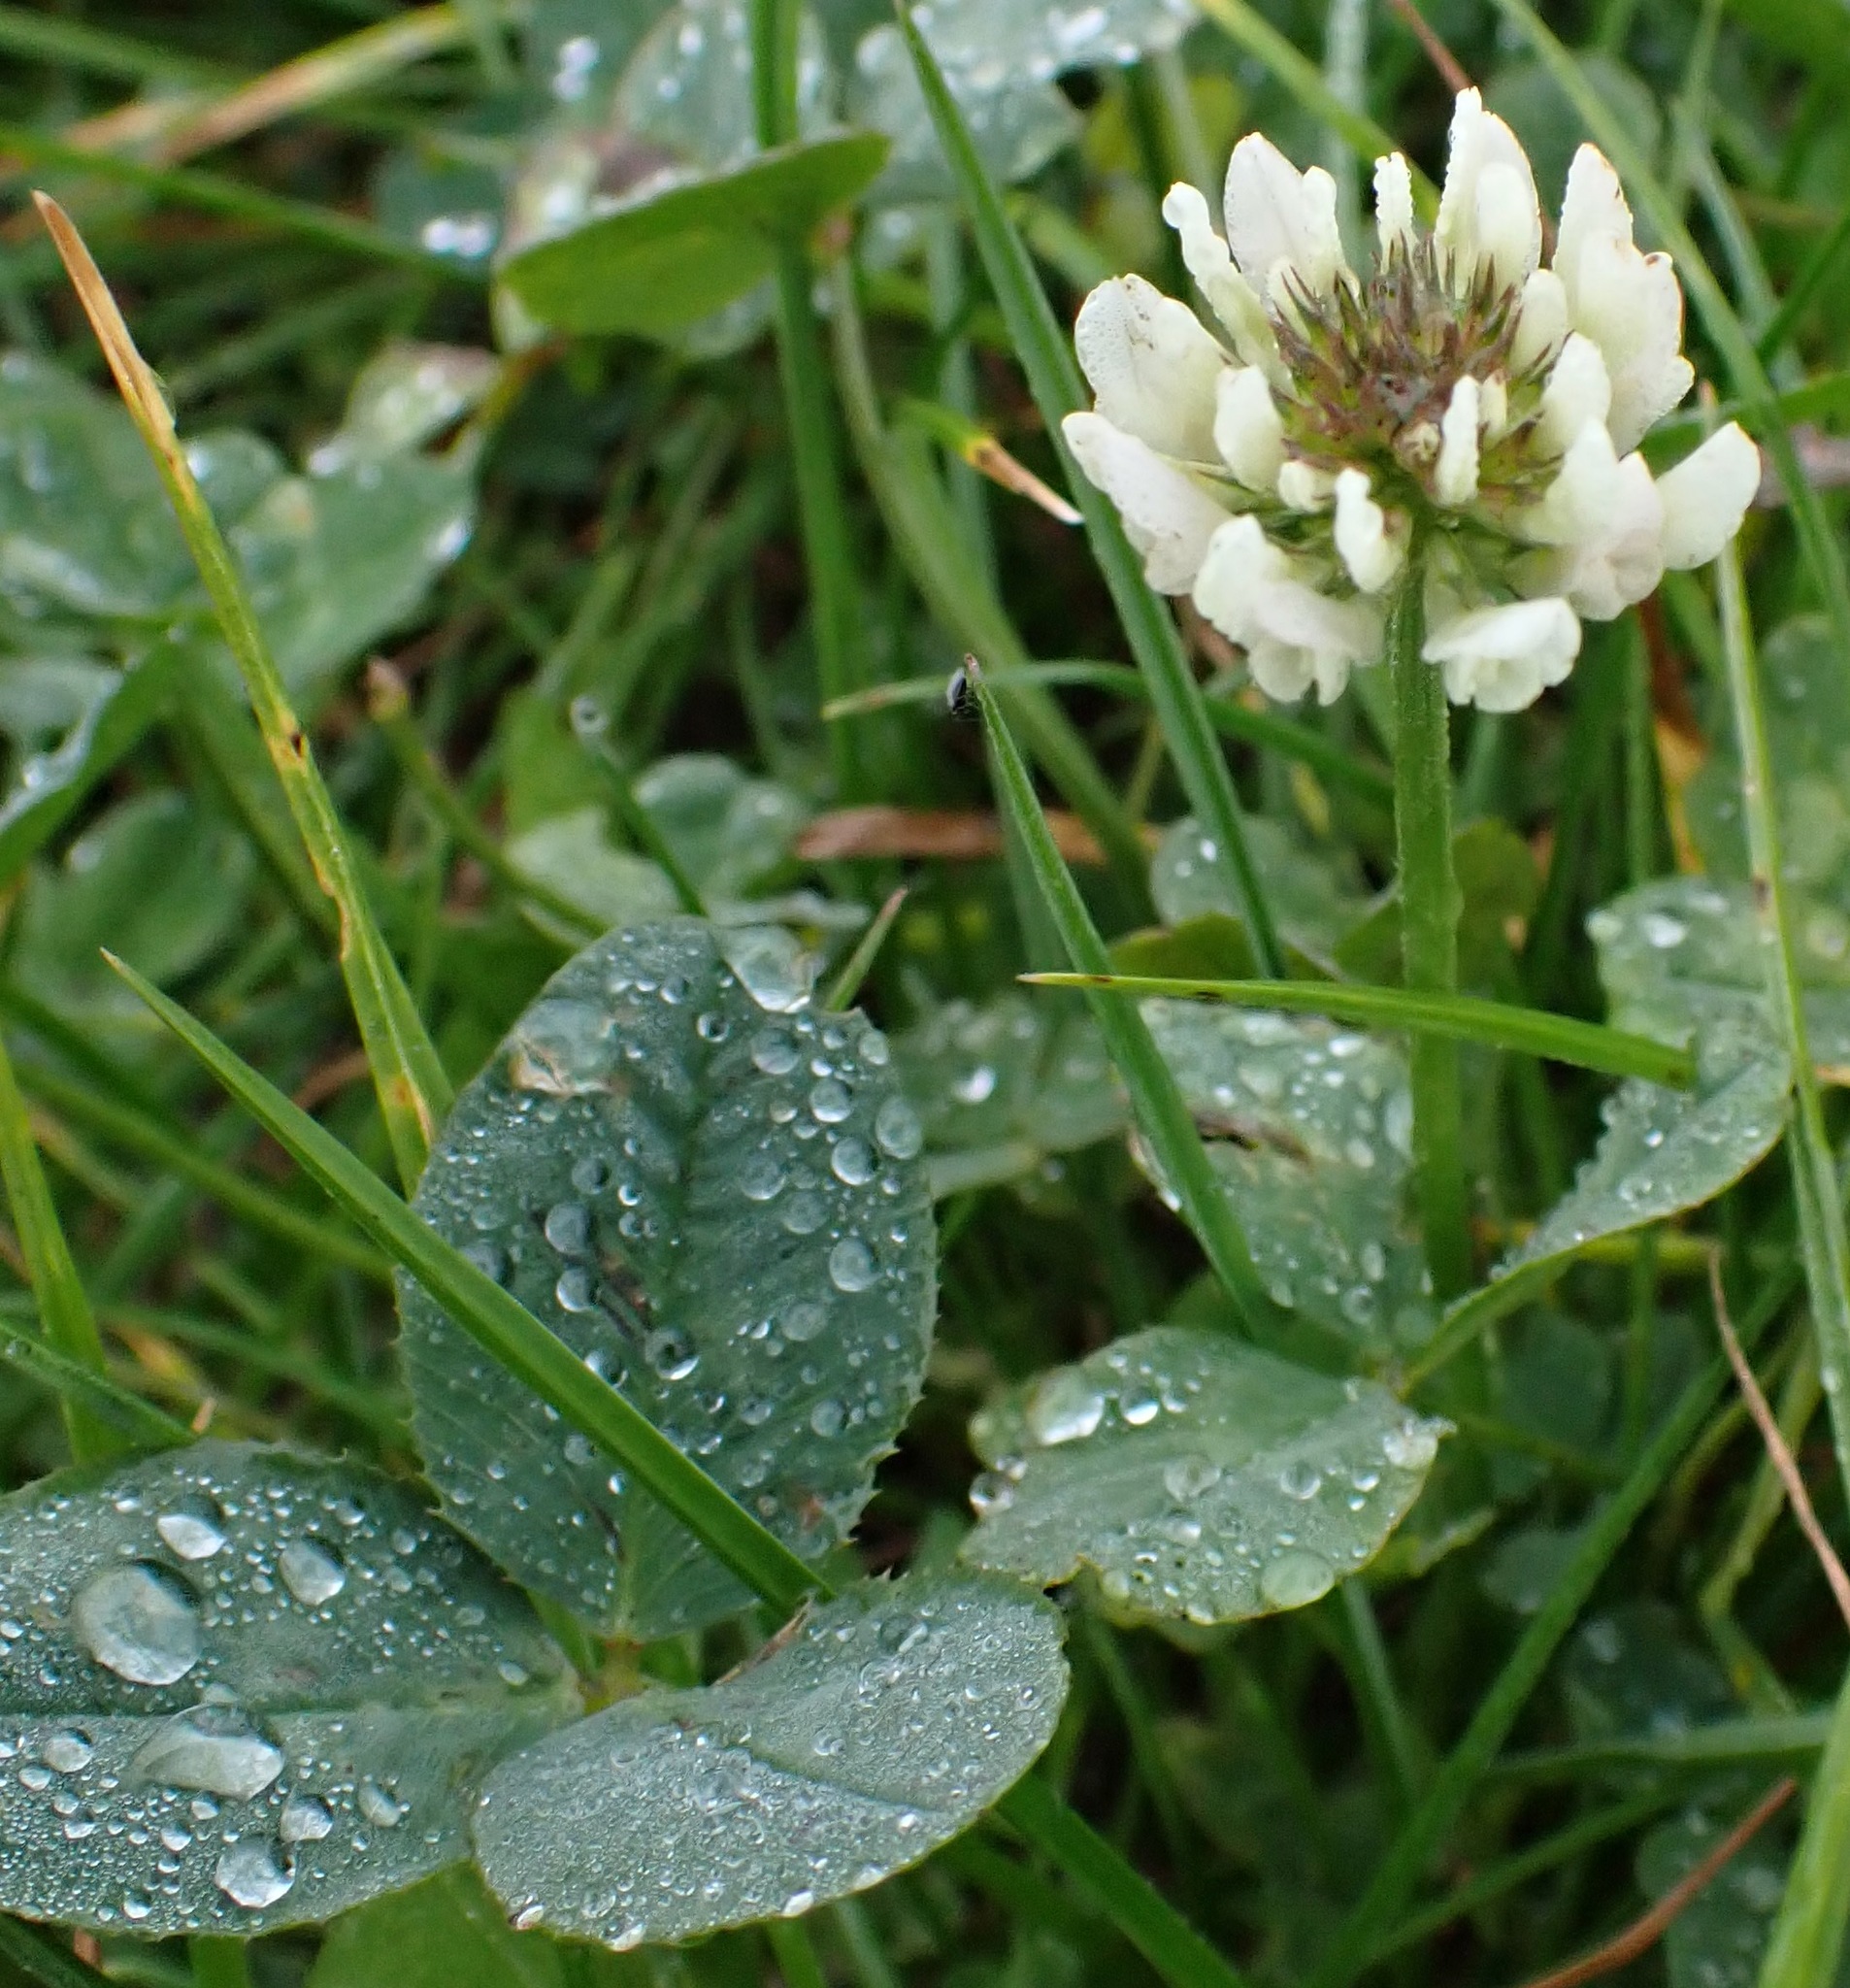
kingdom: Plantae
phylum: Tracheophyta
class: Magnoliopsida
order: Fabales
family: Fabaceae
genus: Trifolium
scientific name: Trifolium repens
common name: White clover
